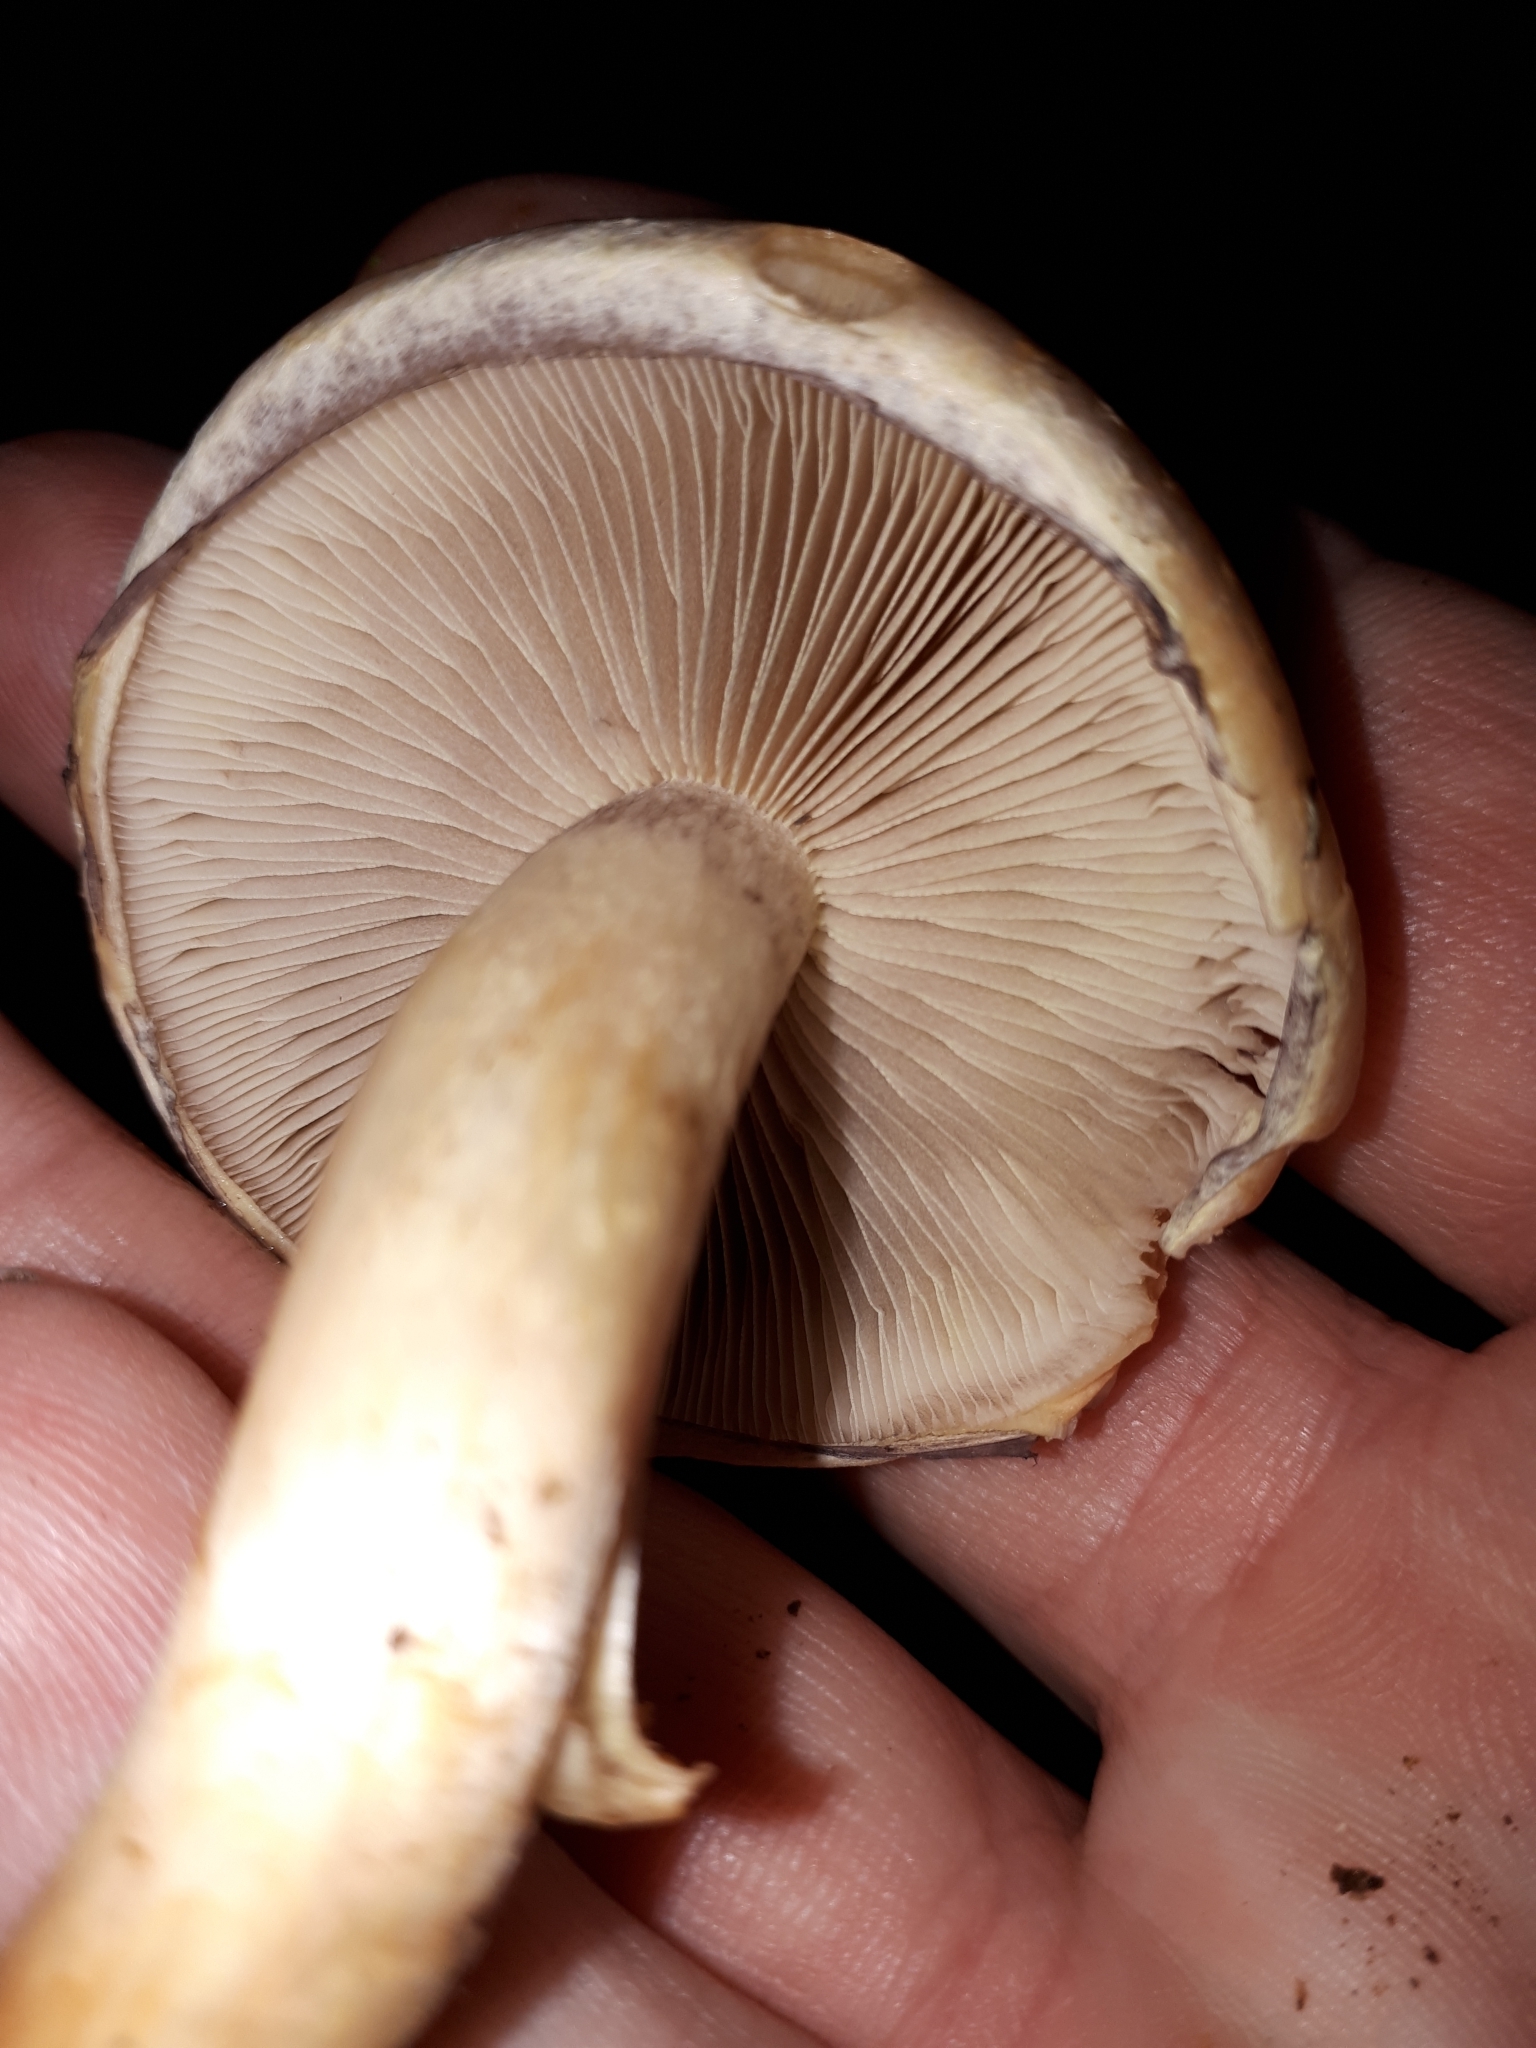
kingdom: Fungi
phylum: Basidiomycota
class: Agaricomycetes
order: Agaricales
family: Strophariaceae
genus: Hypholoma
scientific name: Hypholoma lateritium
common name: Brick caps
